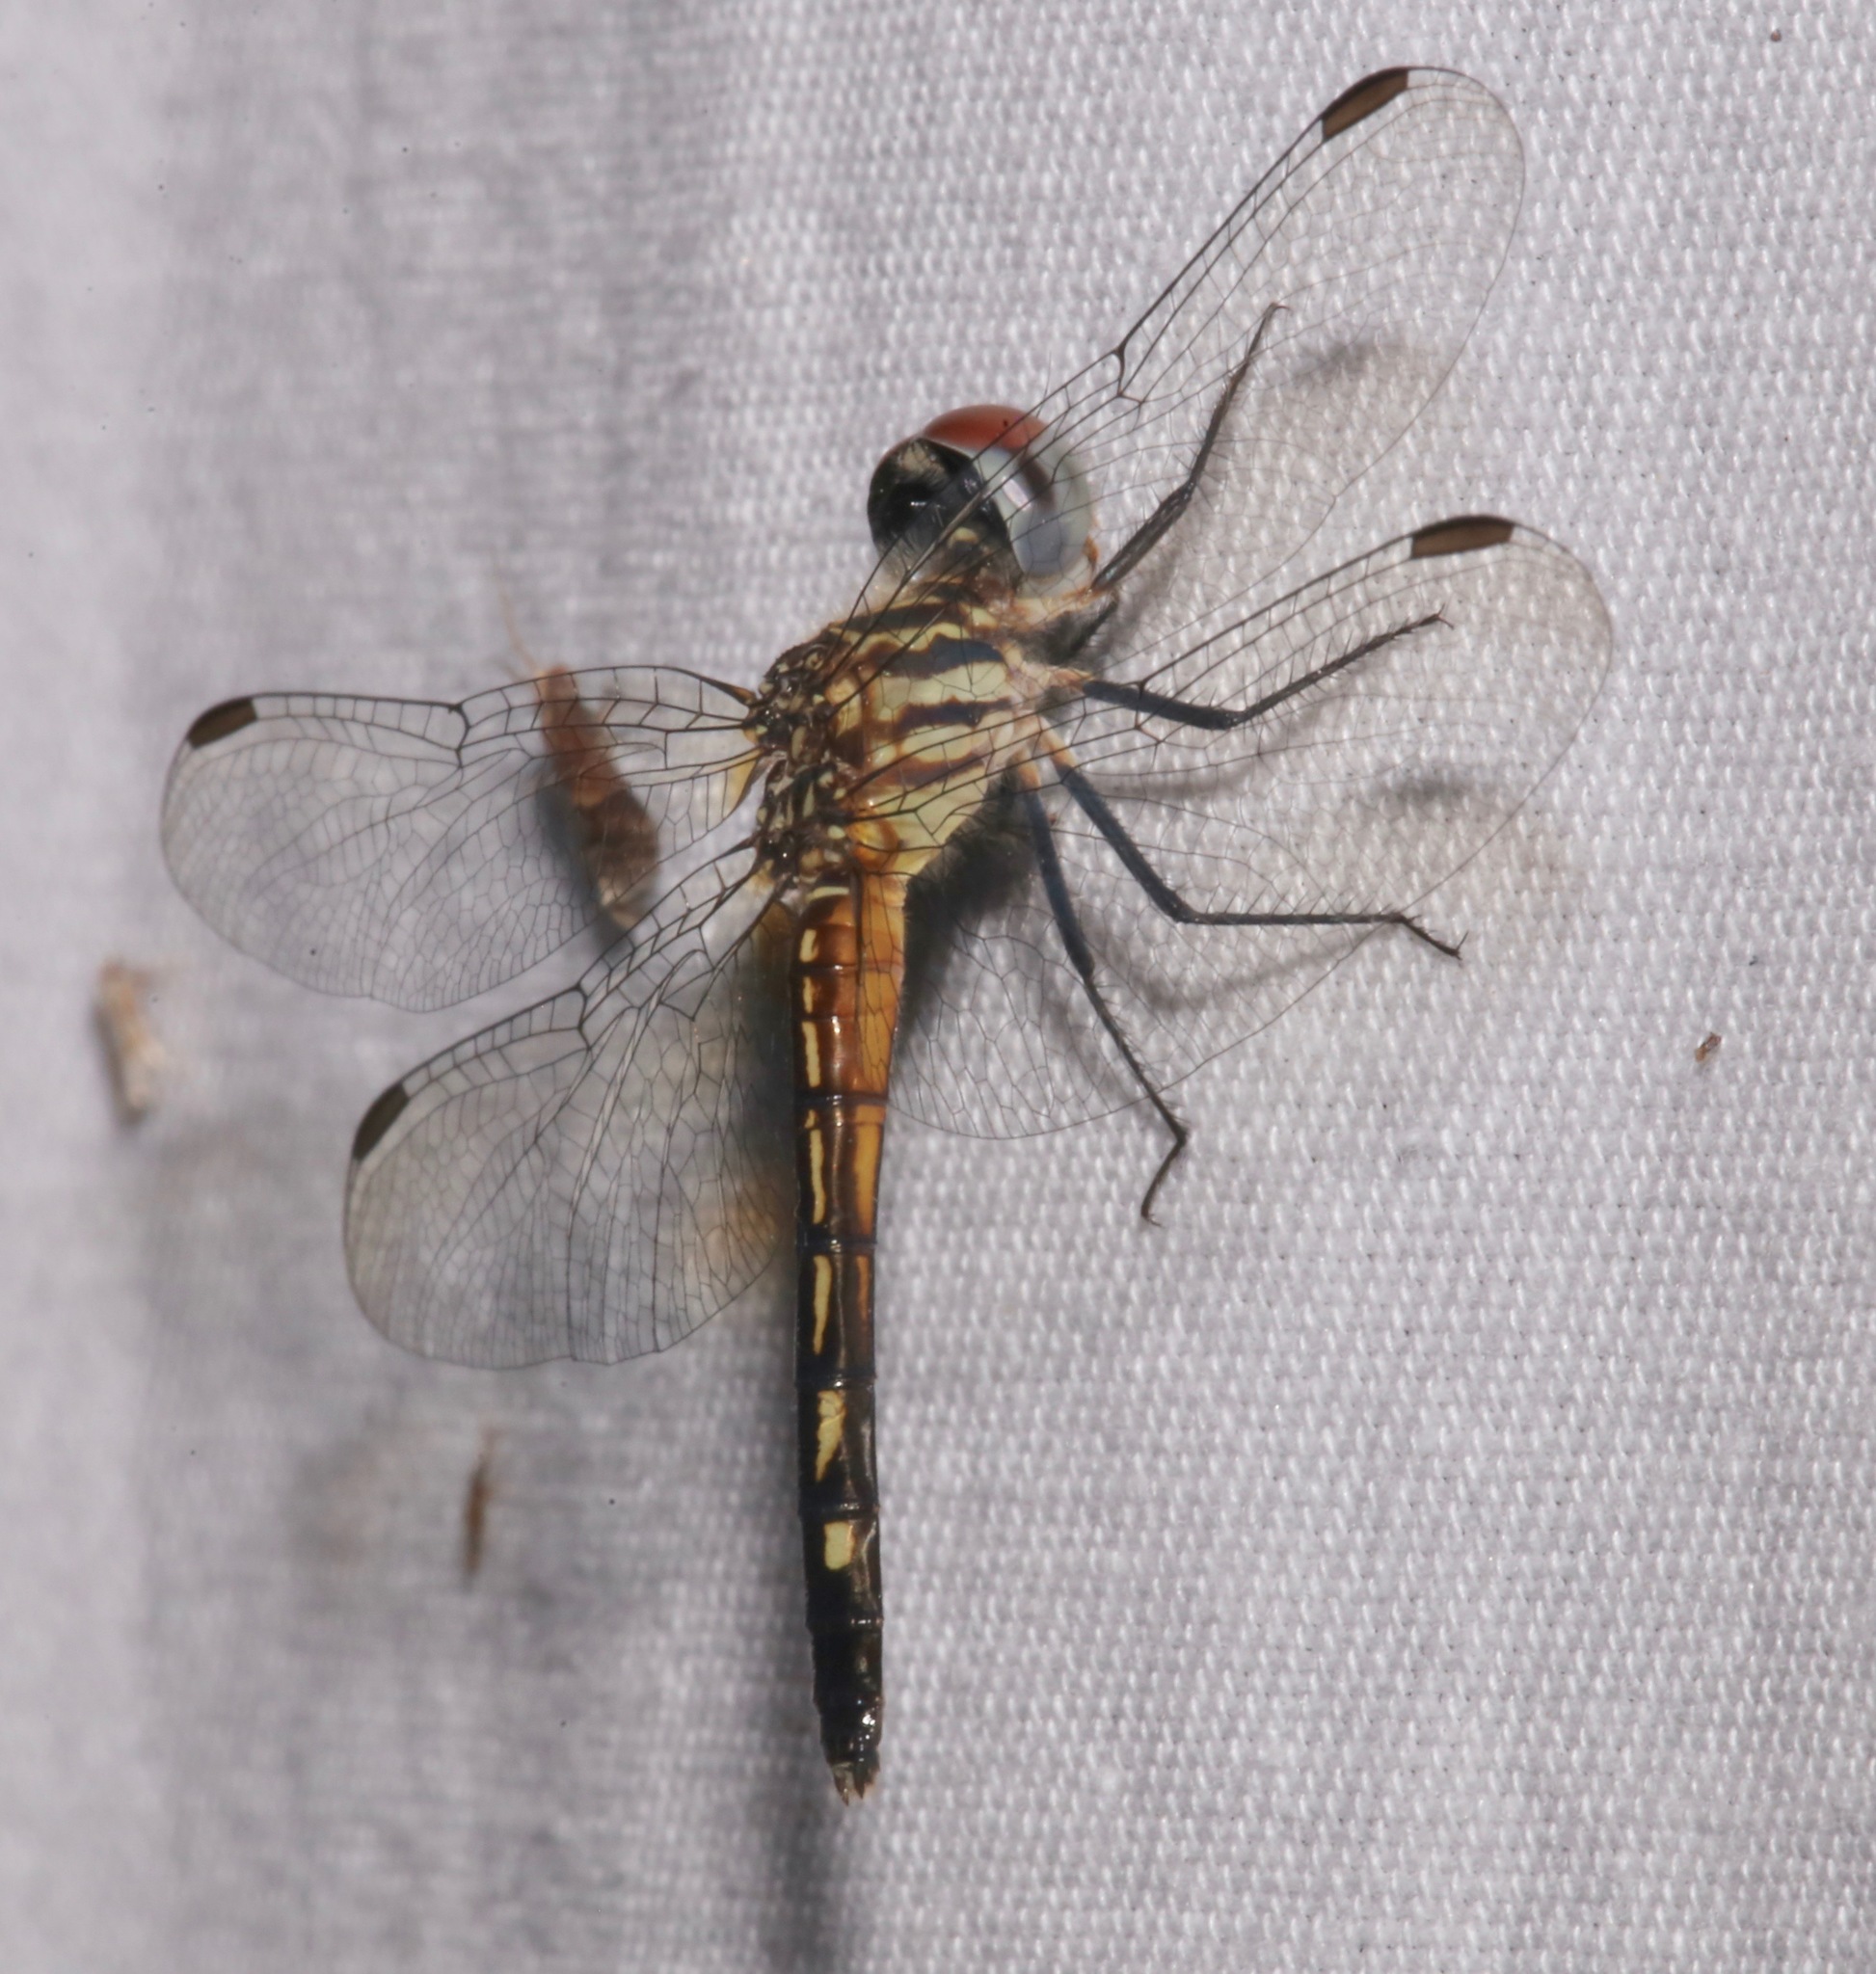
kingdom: Animalia
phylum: Arthropoda
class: Insecta
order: Odonata
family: Libellulidae
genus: Pachydiplax
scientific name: Pachydiplax longipennis
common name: Blue dasher
